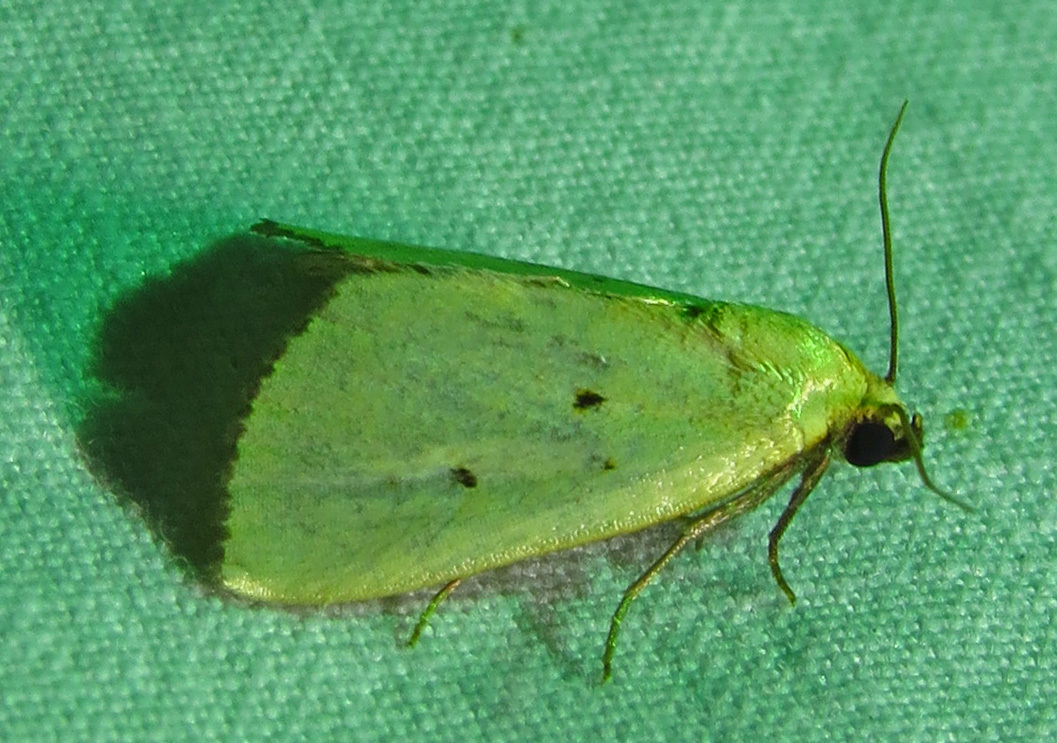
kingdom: Animalia
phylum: Arthropoda
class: Insecta
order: Lepidoptera
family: Noctuidae
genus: Marimatha
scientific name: Marimatha nigrofimbria
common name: Black-bordered lemon moth
